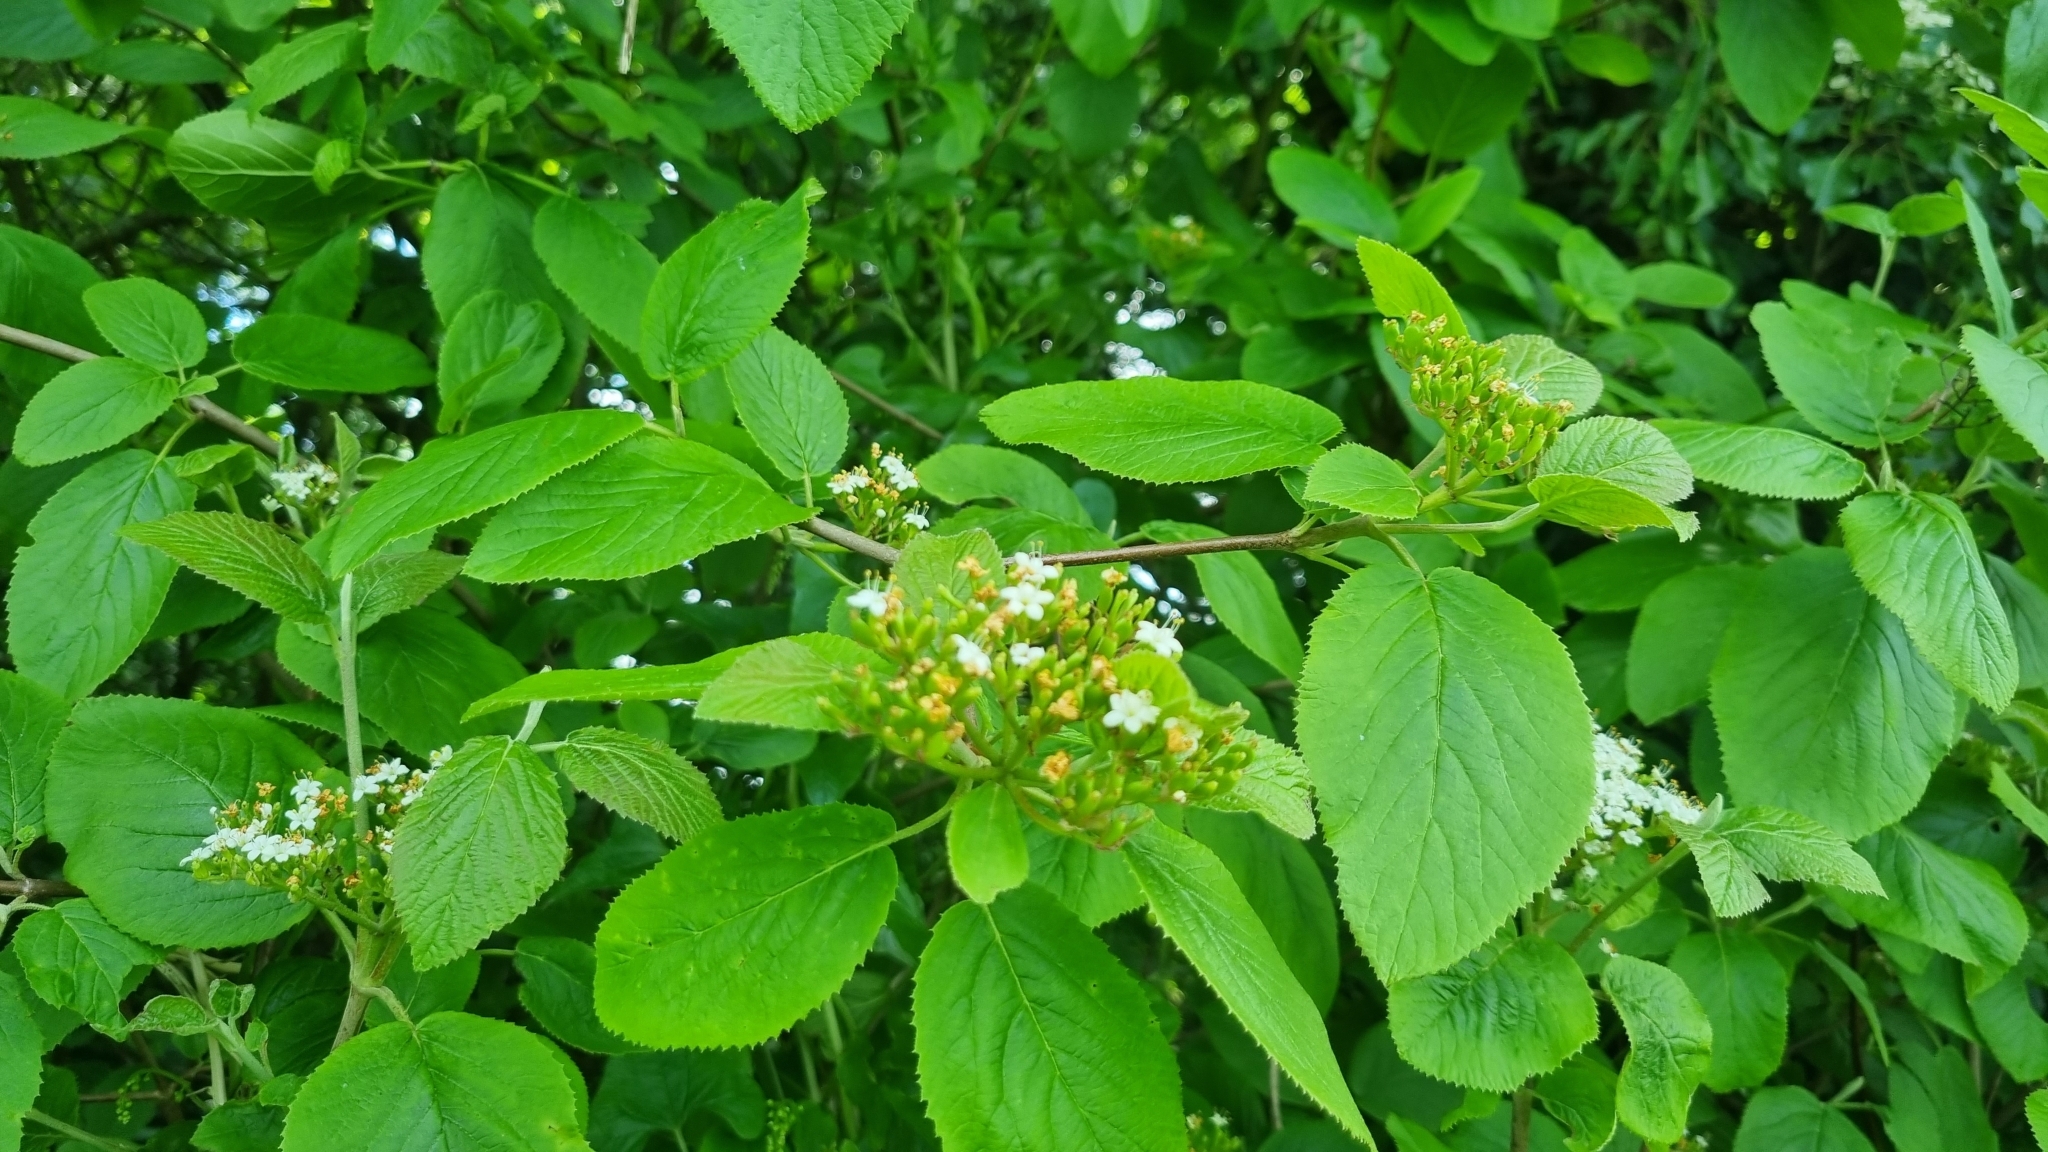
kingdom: Plantae
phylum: Tracheophyta
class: Magnoliopsida
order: Dipsacales
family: Viburnaceae
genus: Viburnum
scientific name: Viburnum lantana
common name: Wayfaring tree
